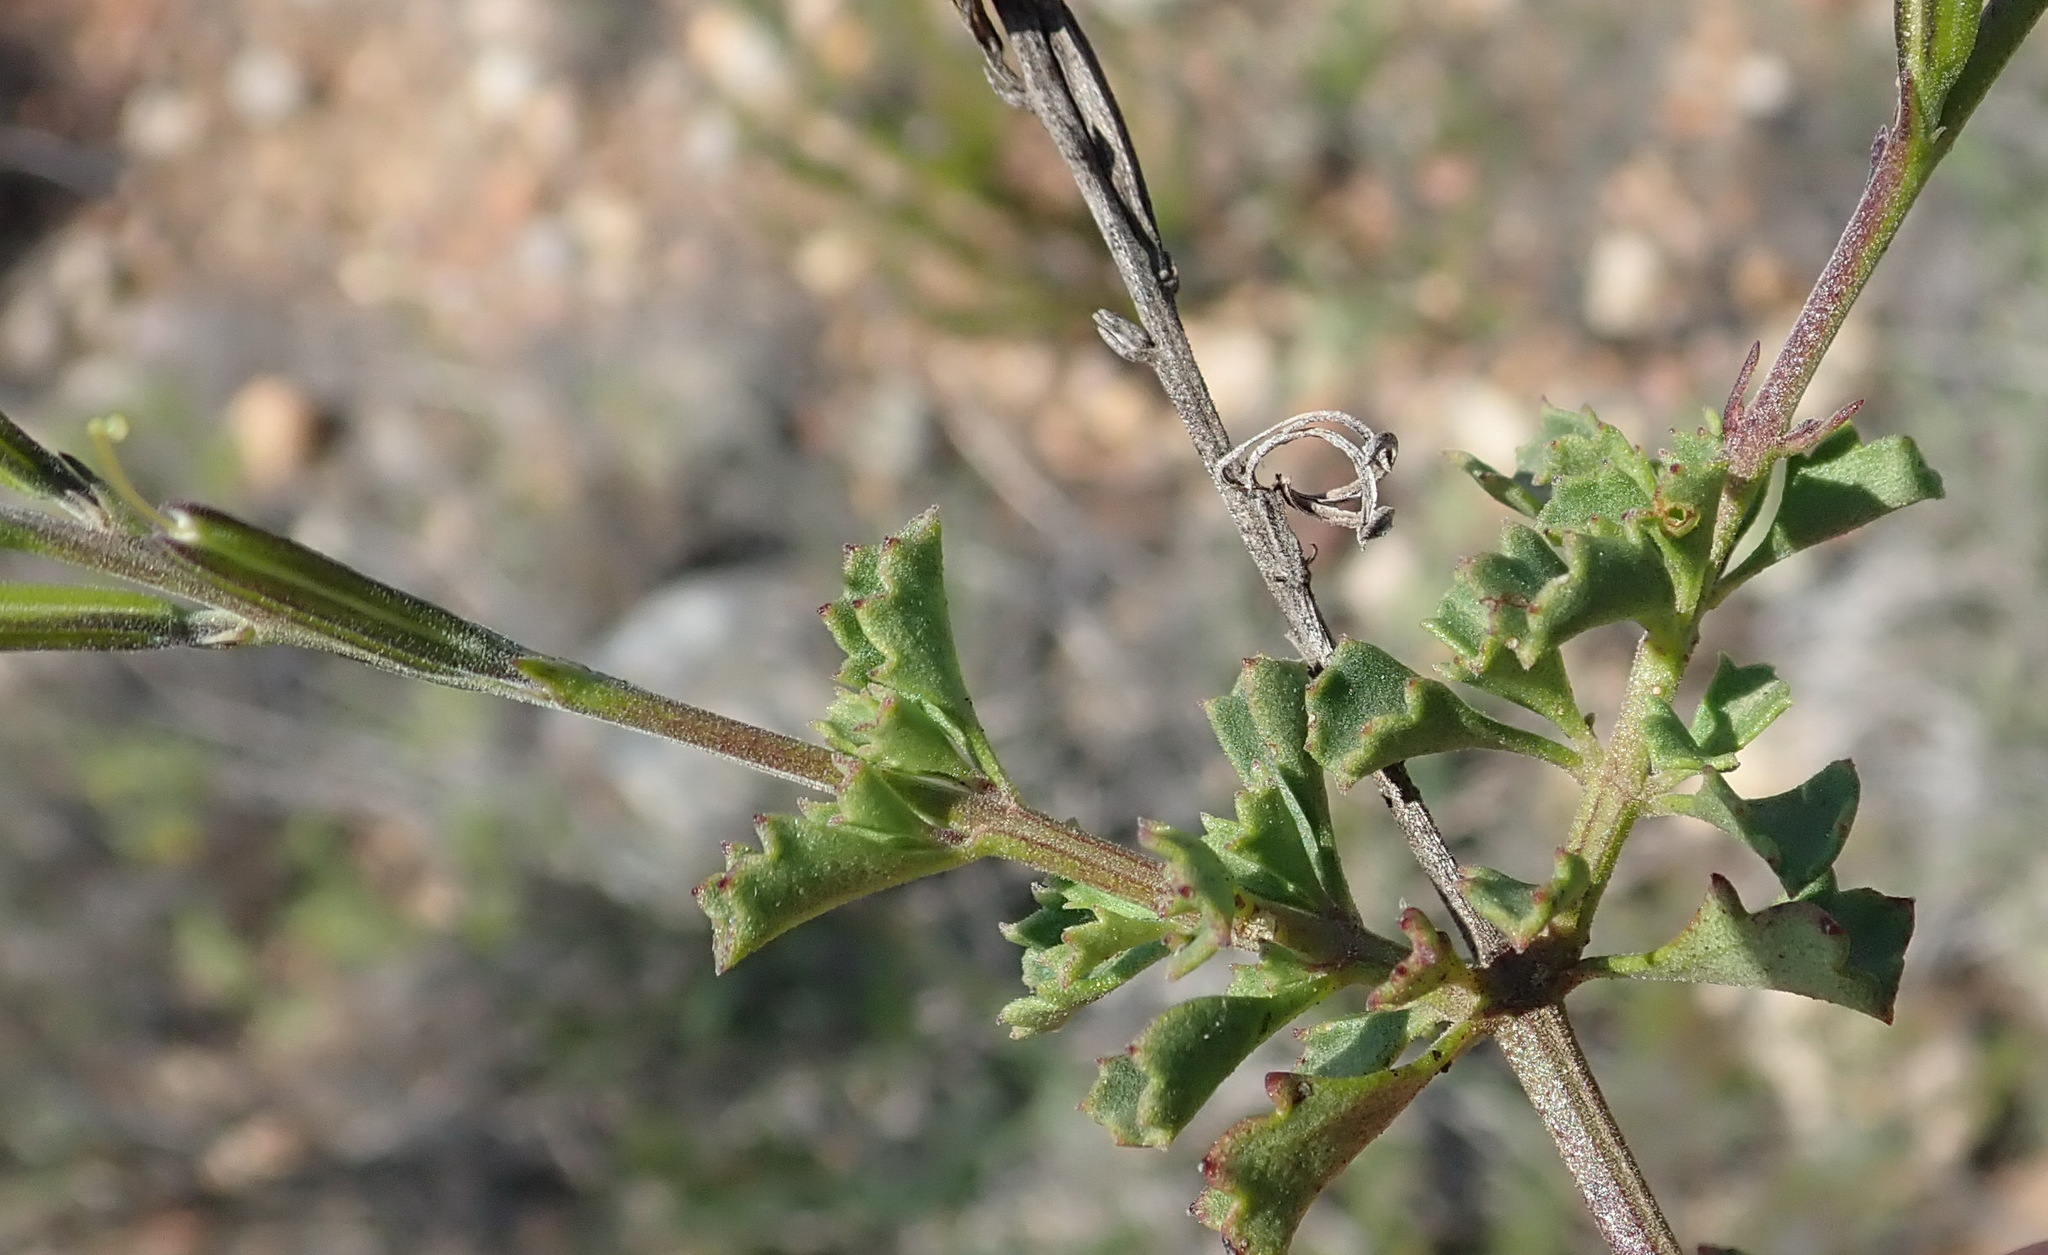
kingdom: Plantae
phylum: Tracheophyta
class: Magnoliopsida
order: Lamiales
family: Verbenaceae
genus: Chascanum
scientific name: Chascanum cuneifolium
